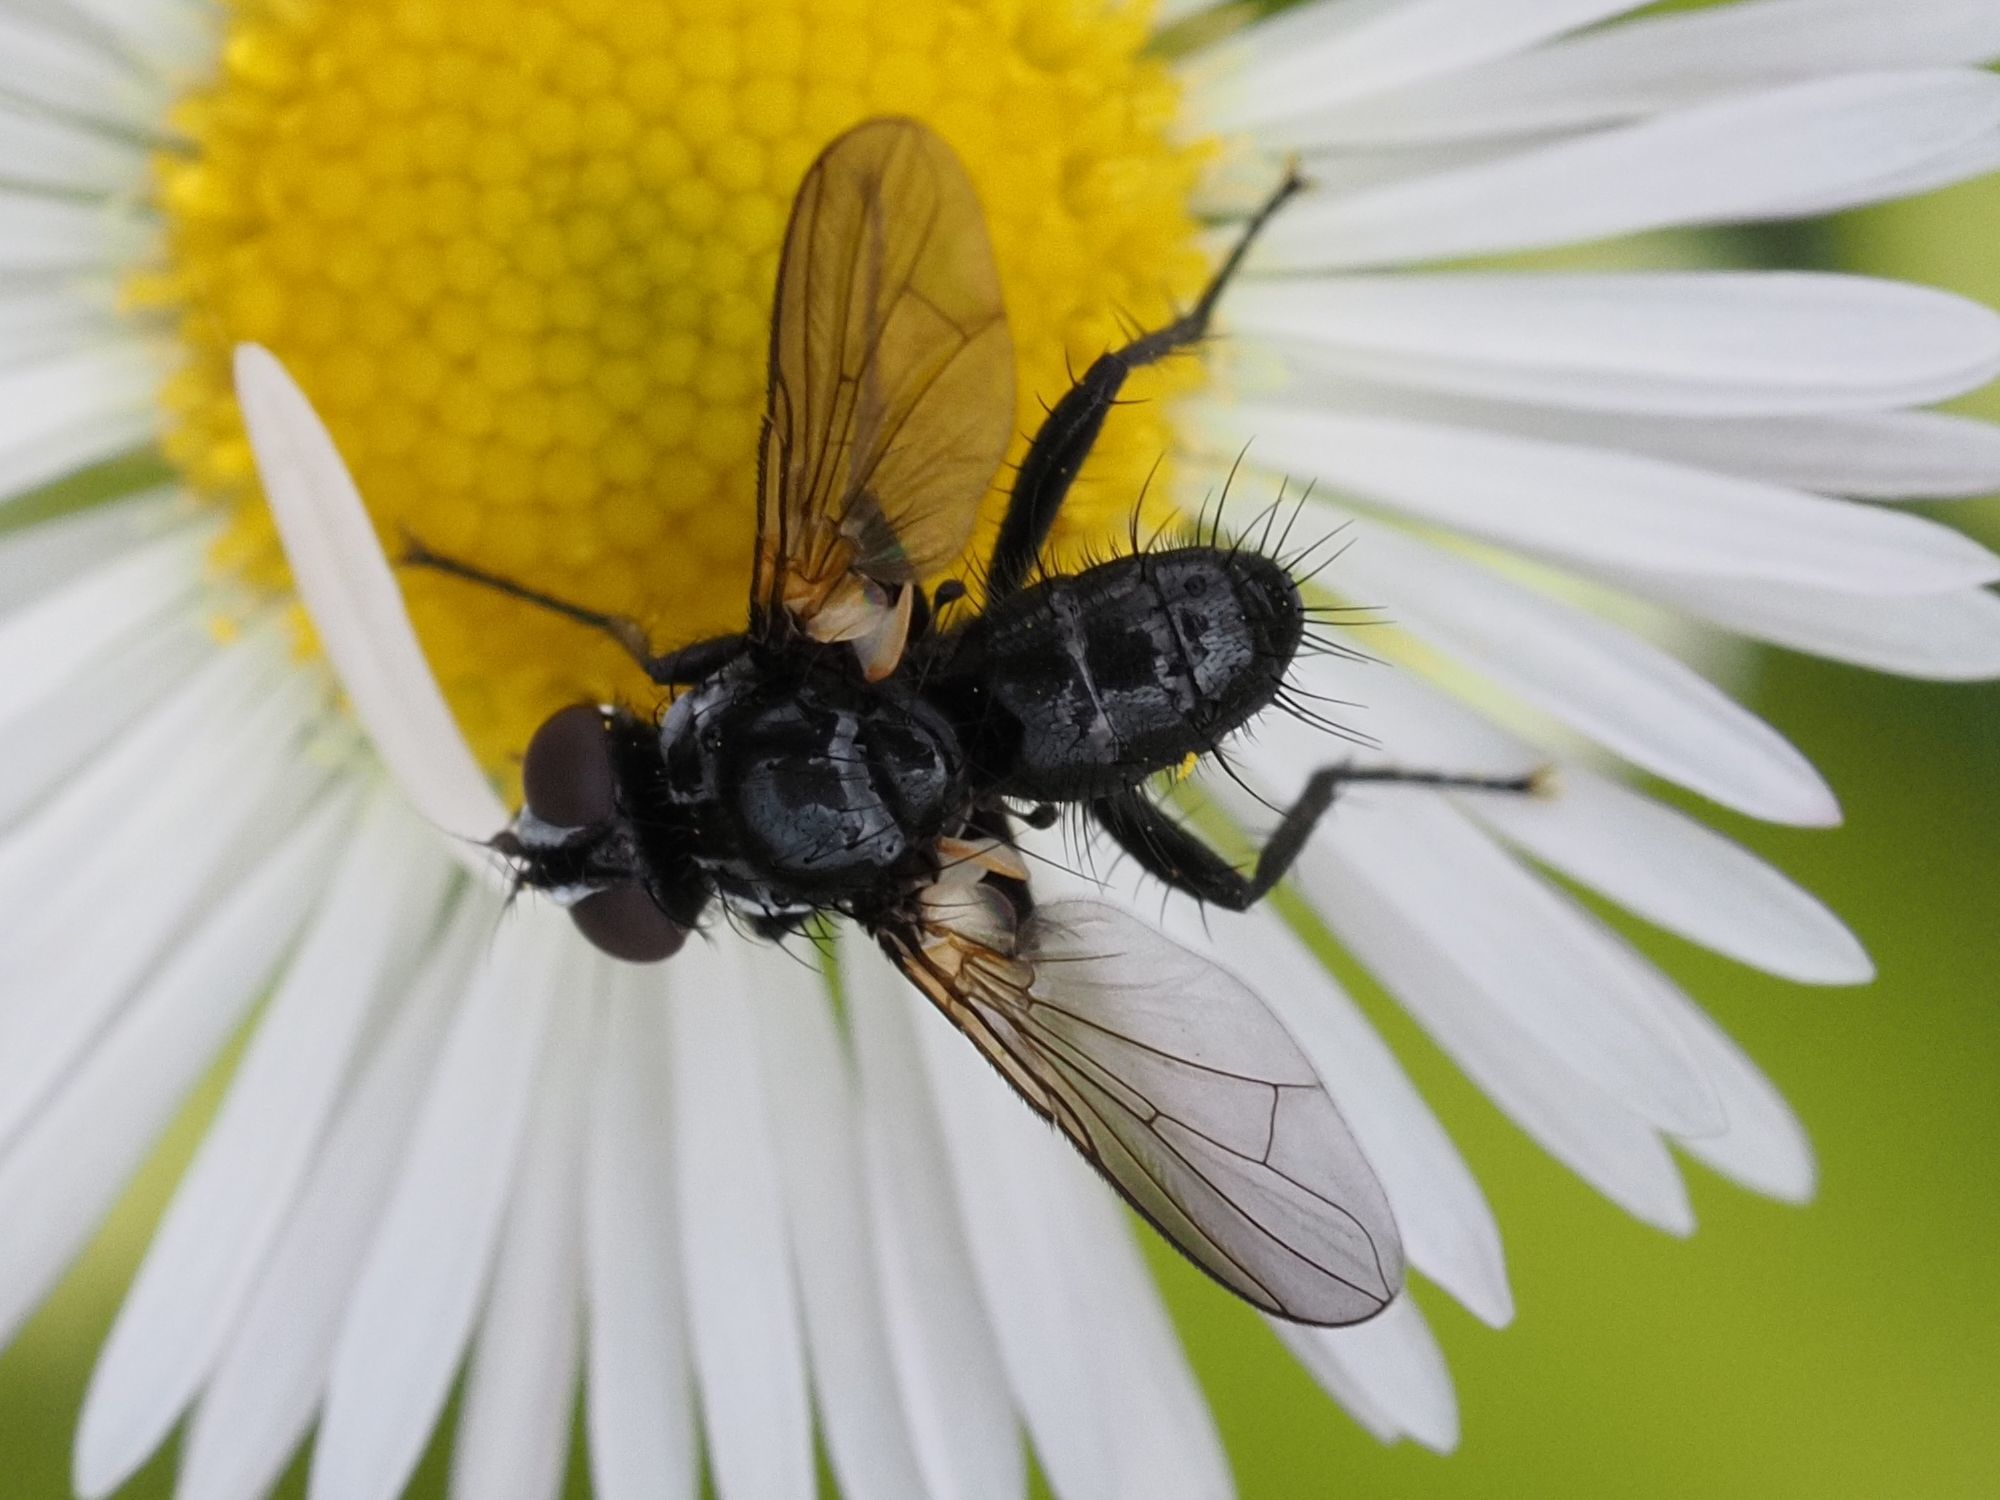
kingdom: Animalia
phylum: Arthropoda
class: Insecta
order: Diptera
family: Tachinidae
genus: Phania
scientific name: Phania funesta
